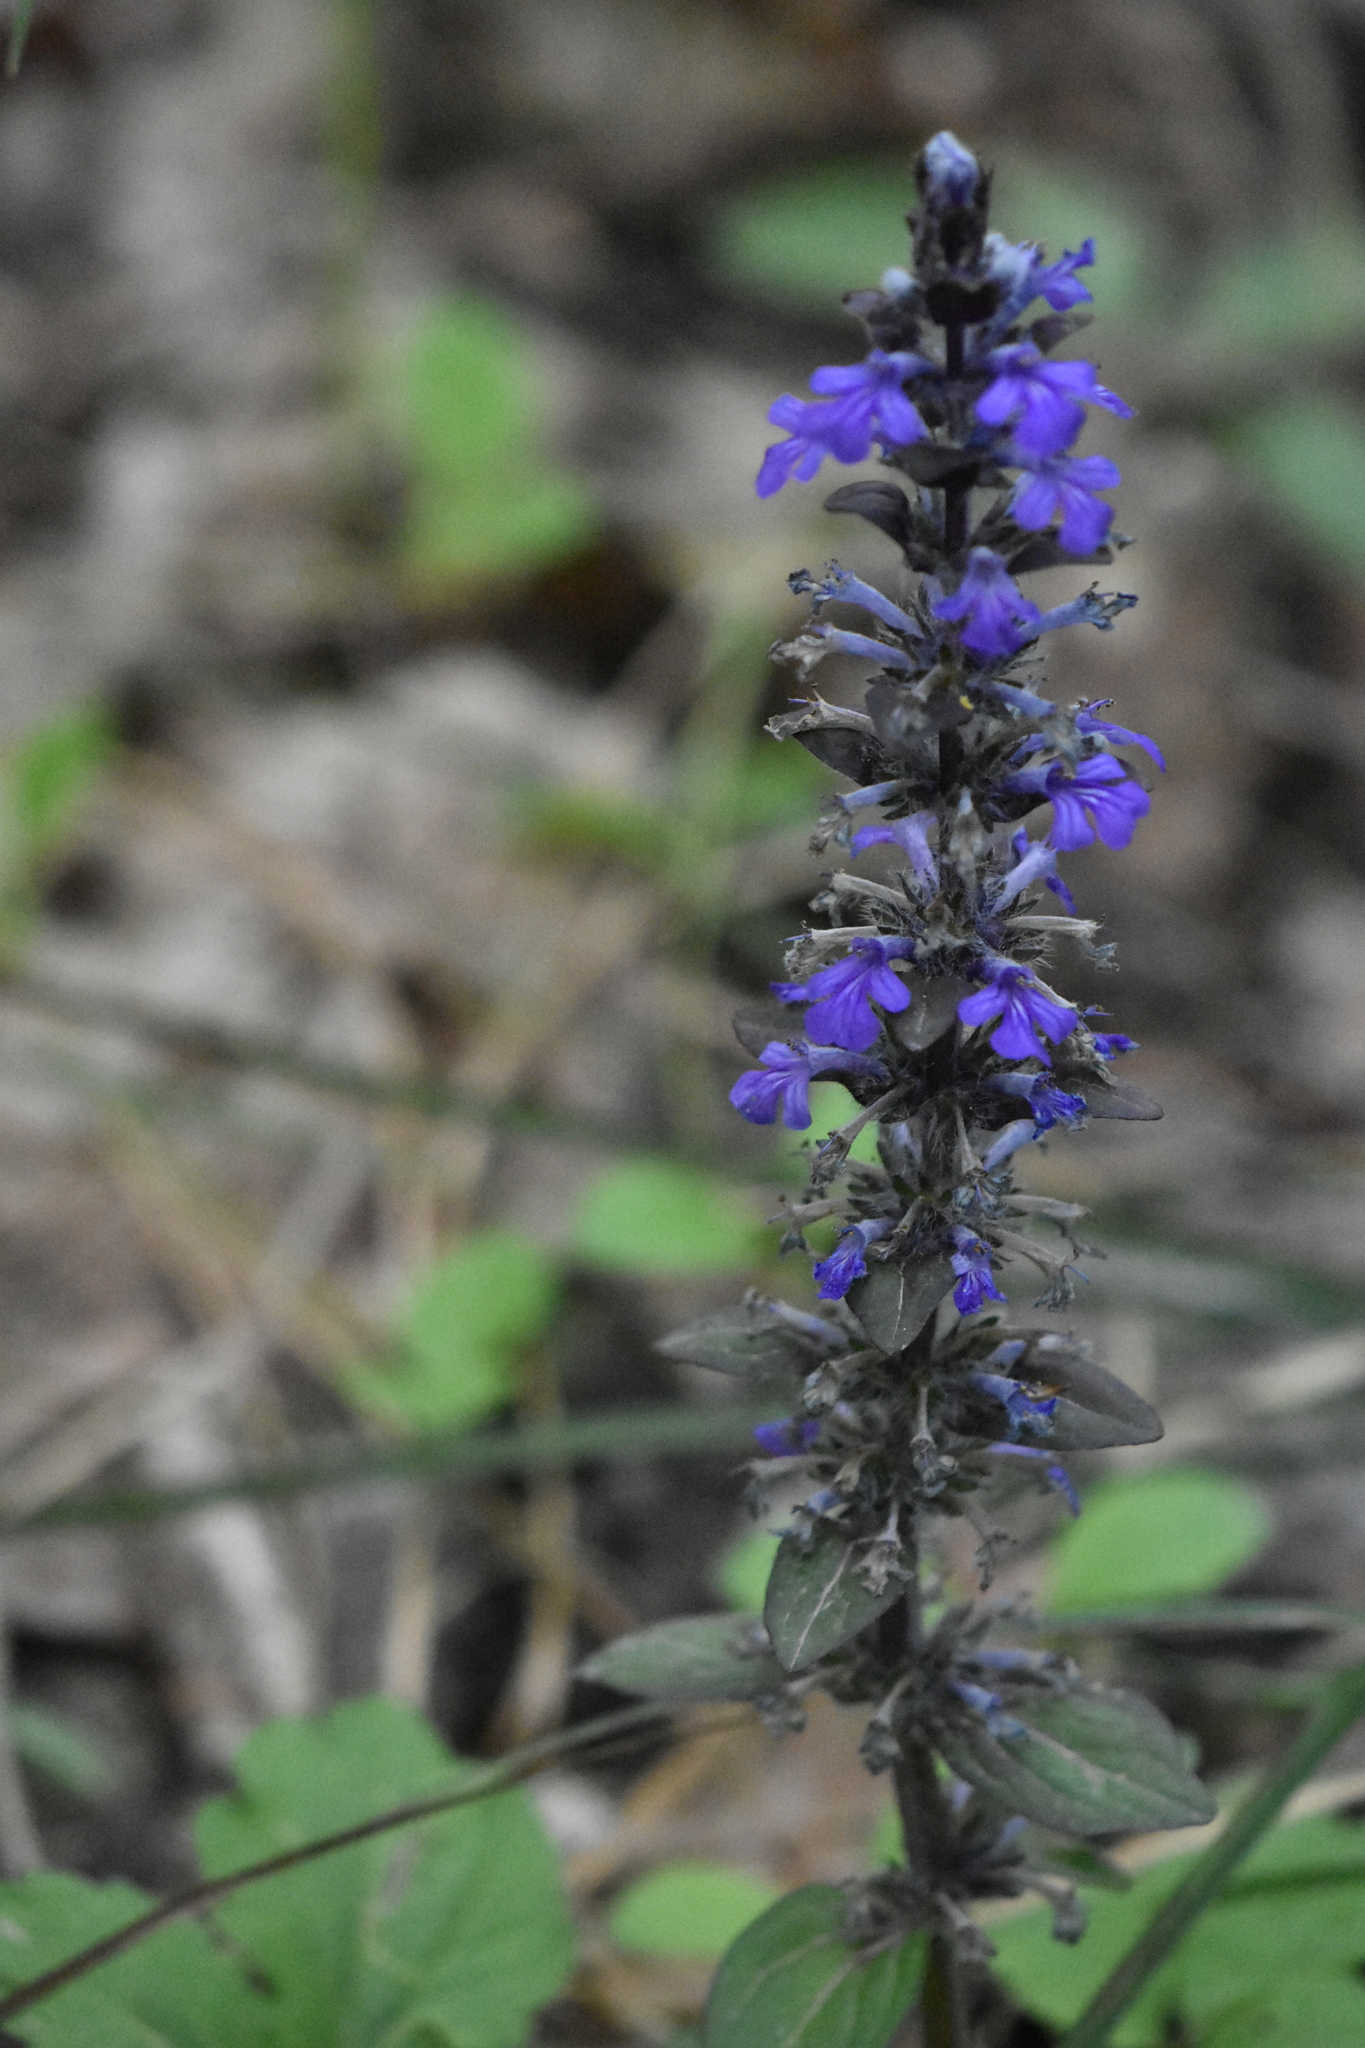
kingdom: Plantae
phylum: Tracheophyta
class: Magnoliopsida
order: Lamiales
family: Lamiaceae
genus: Ajuga
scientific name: Ajuga reptans
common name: Bugle
